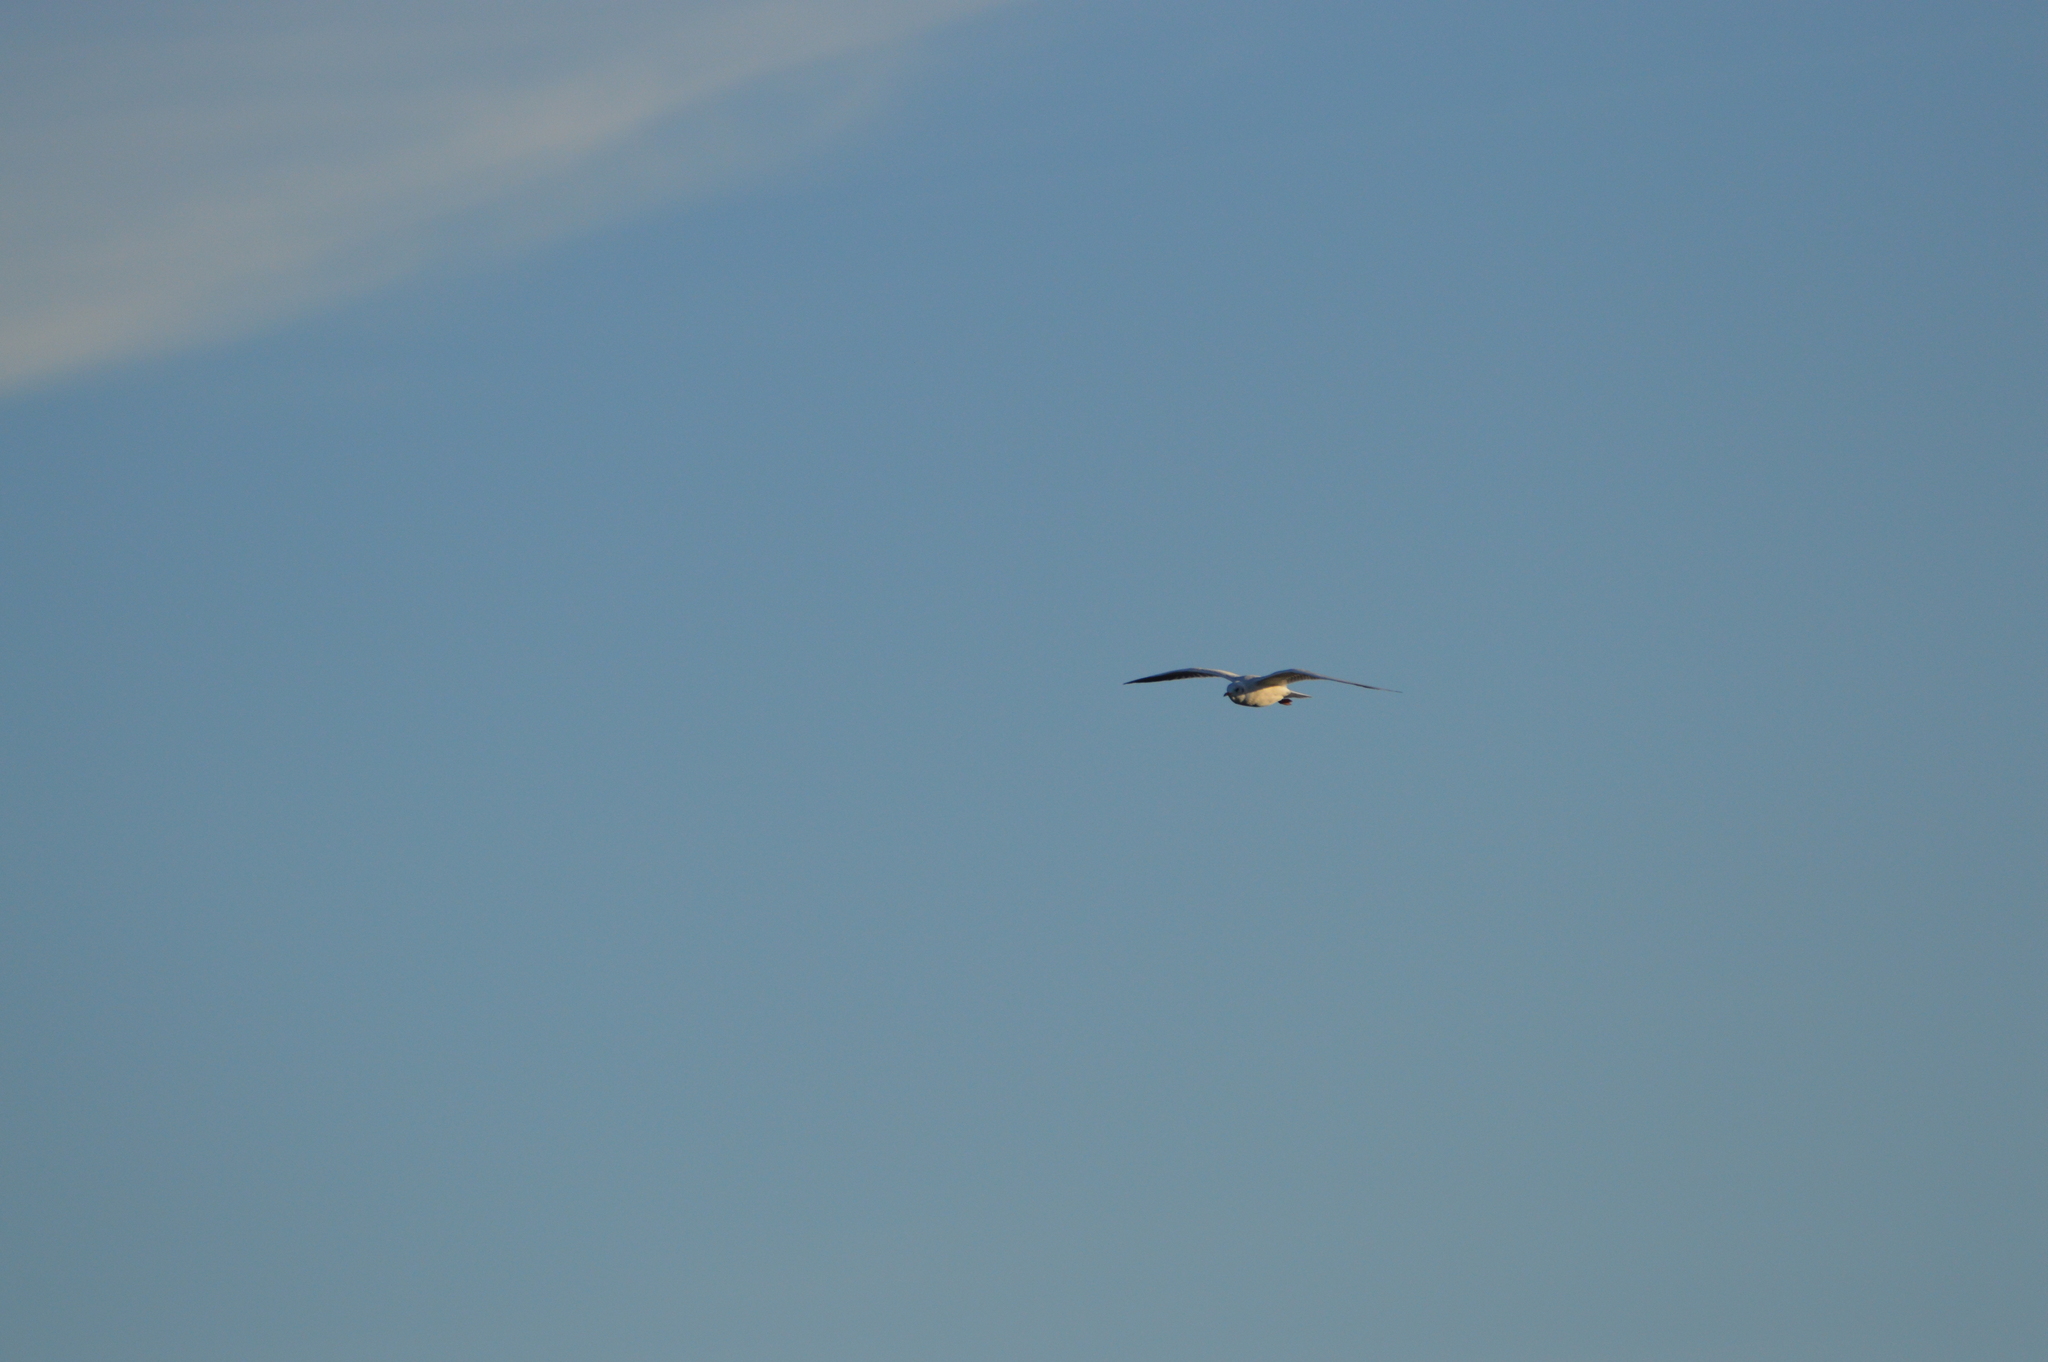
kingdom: Animalia
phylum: Chordata
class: Aves
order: Charadriiformes
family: Laridae
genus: Chroicocephalus
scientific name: Chroicocephalus ridibundus
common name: Black-headed gull
